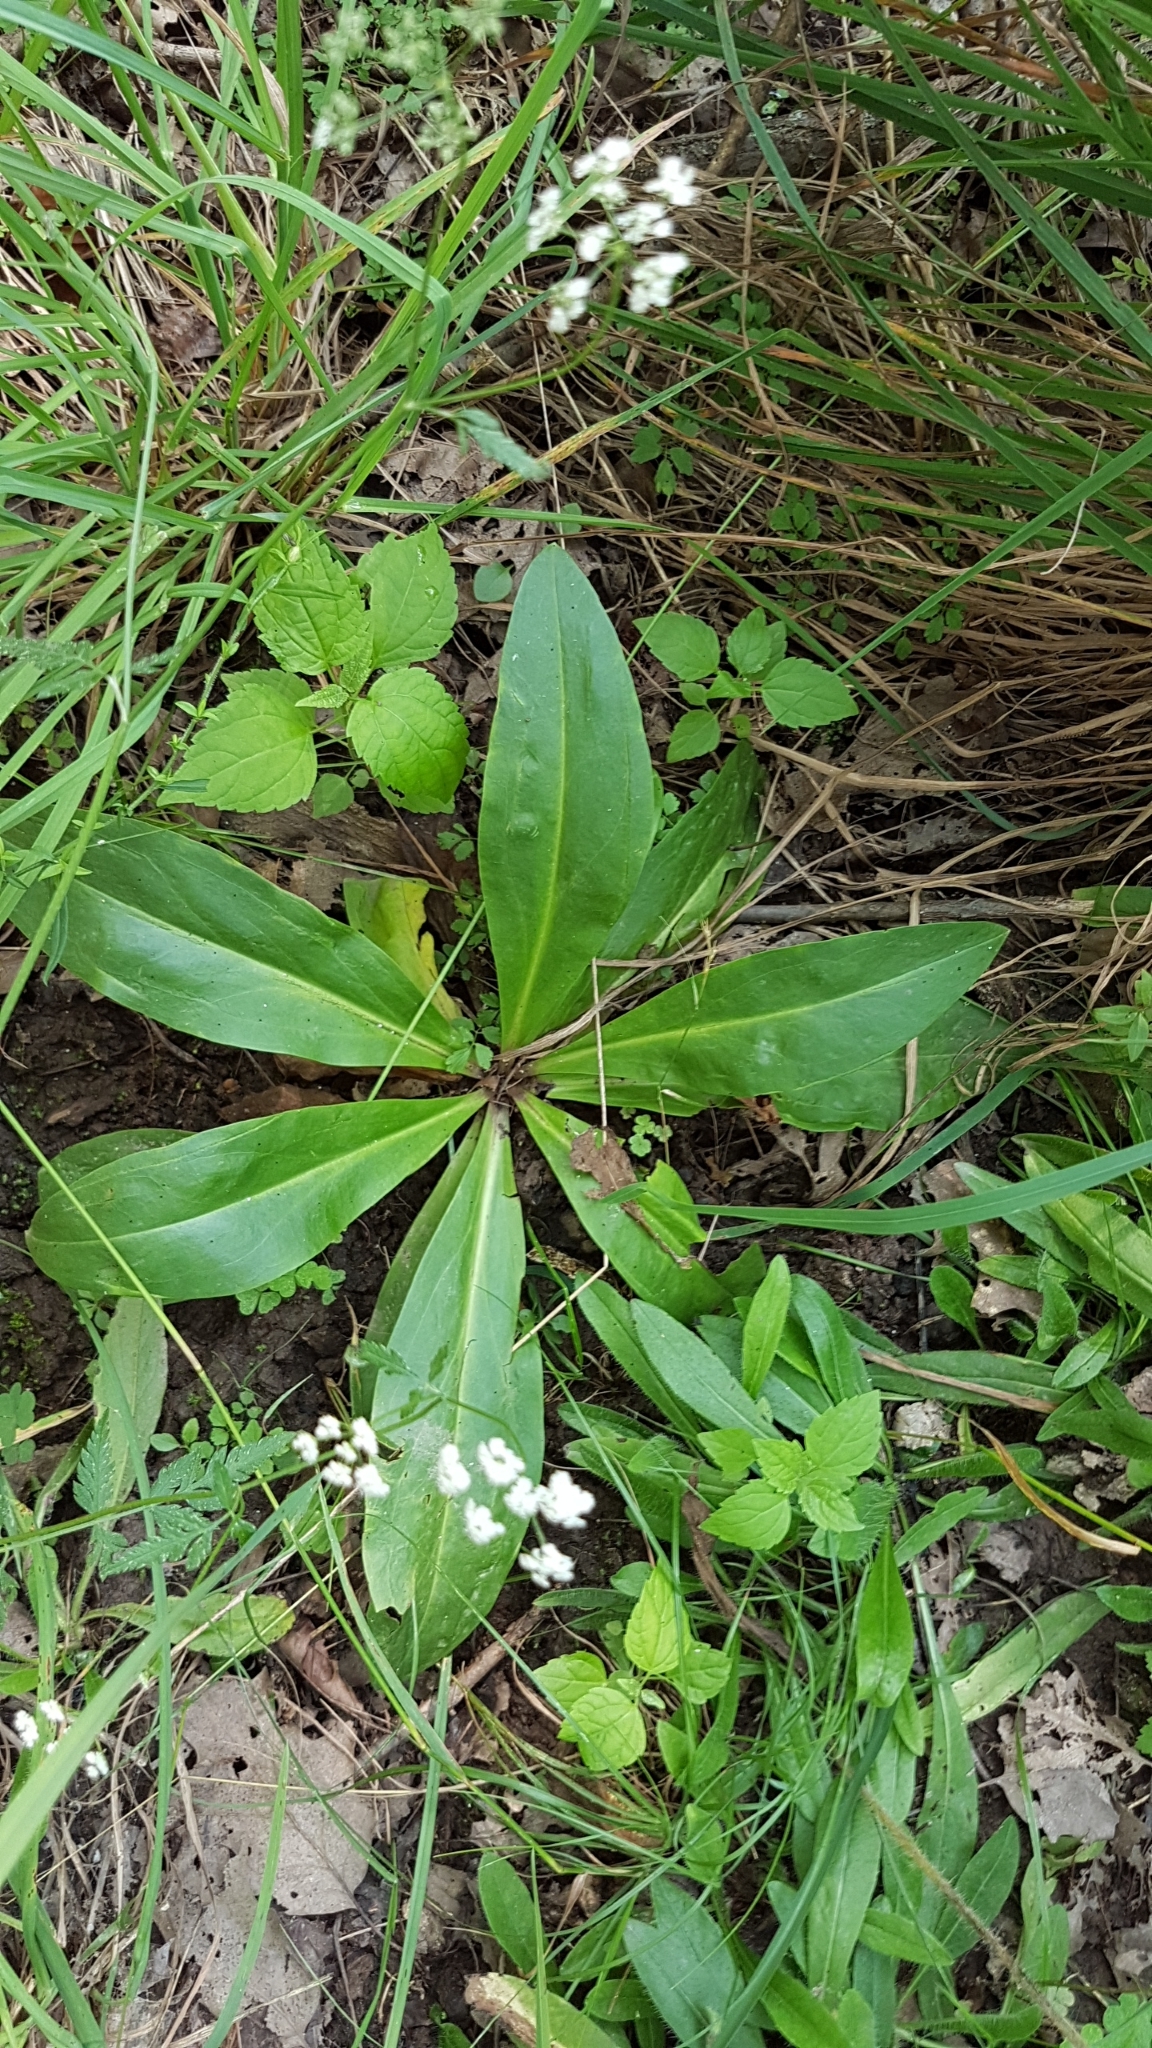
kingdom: Plantae
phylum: Tracheophyta
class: Magnoliopsida
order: Gentianales
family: Gentianaceae
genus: Frasera
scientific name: Frasera caroliniensis
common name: American columbo
